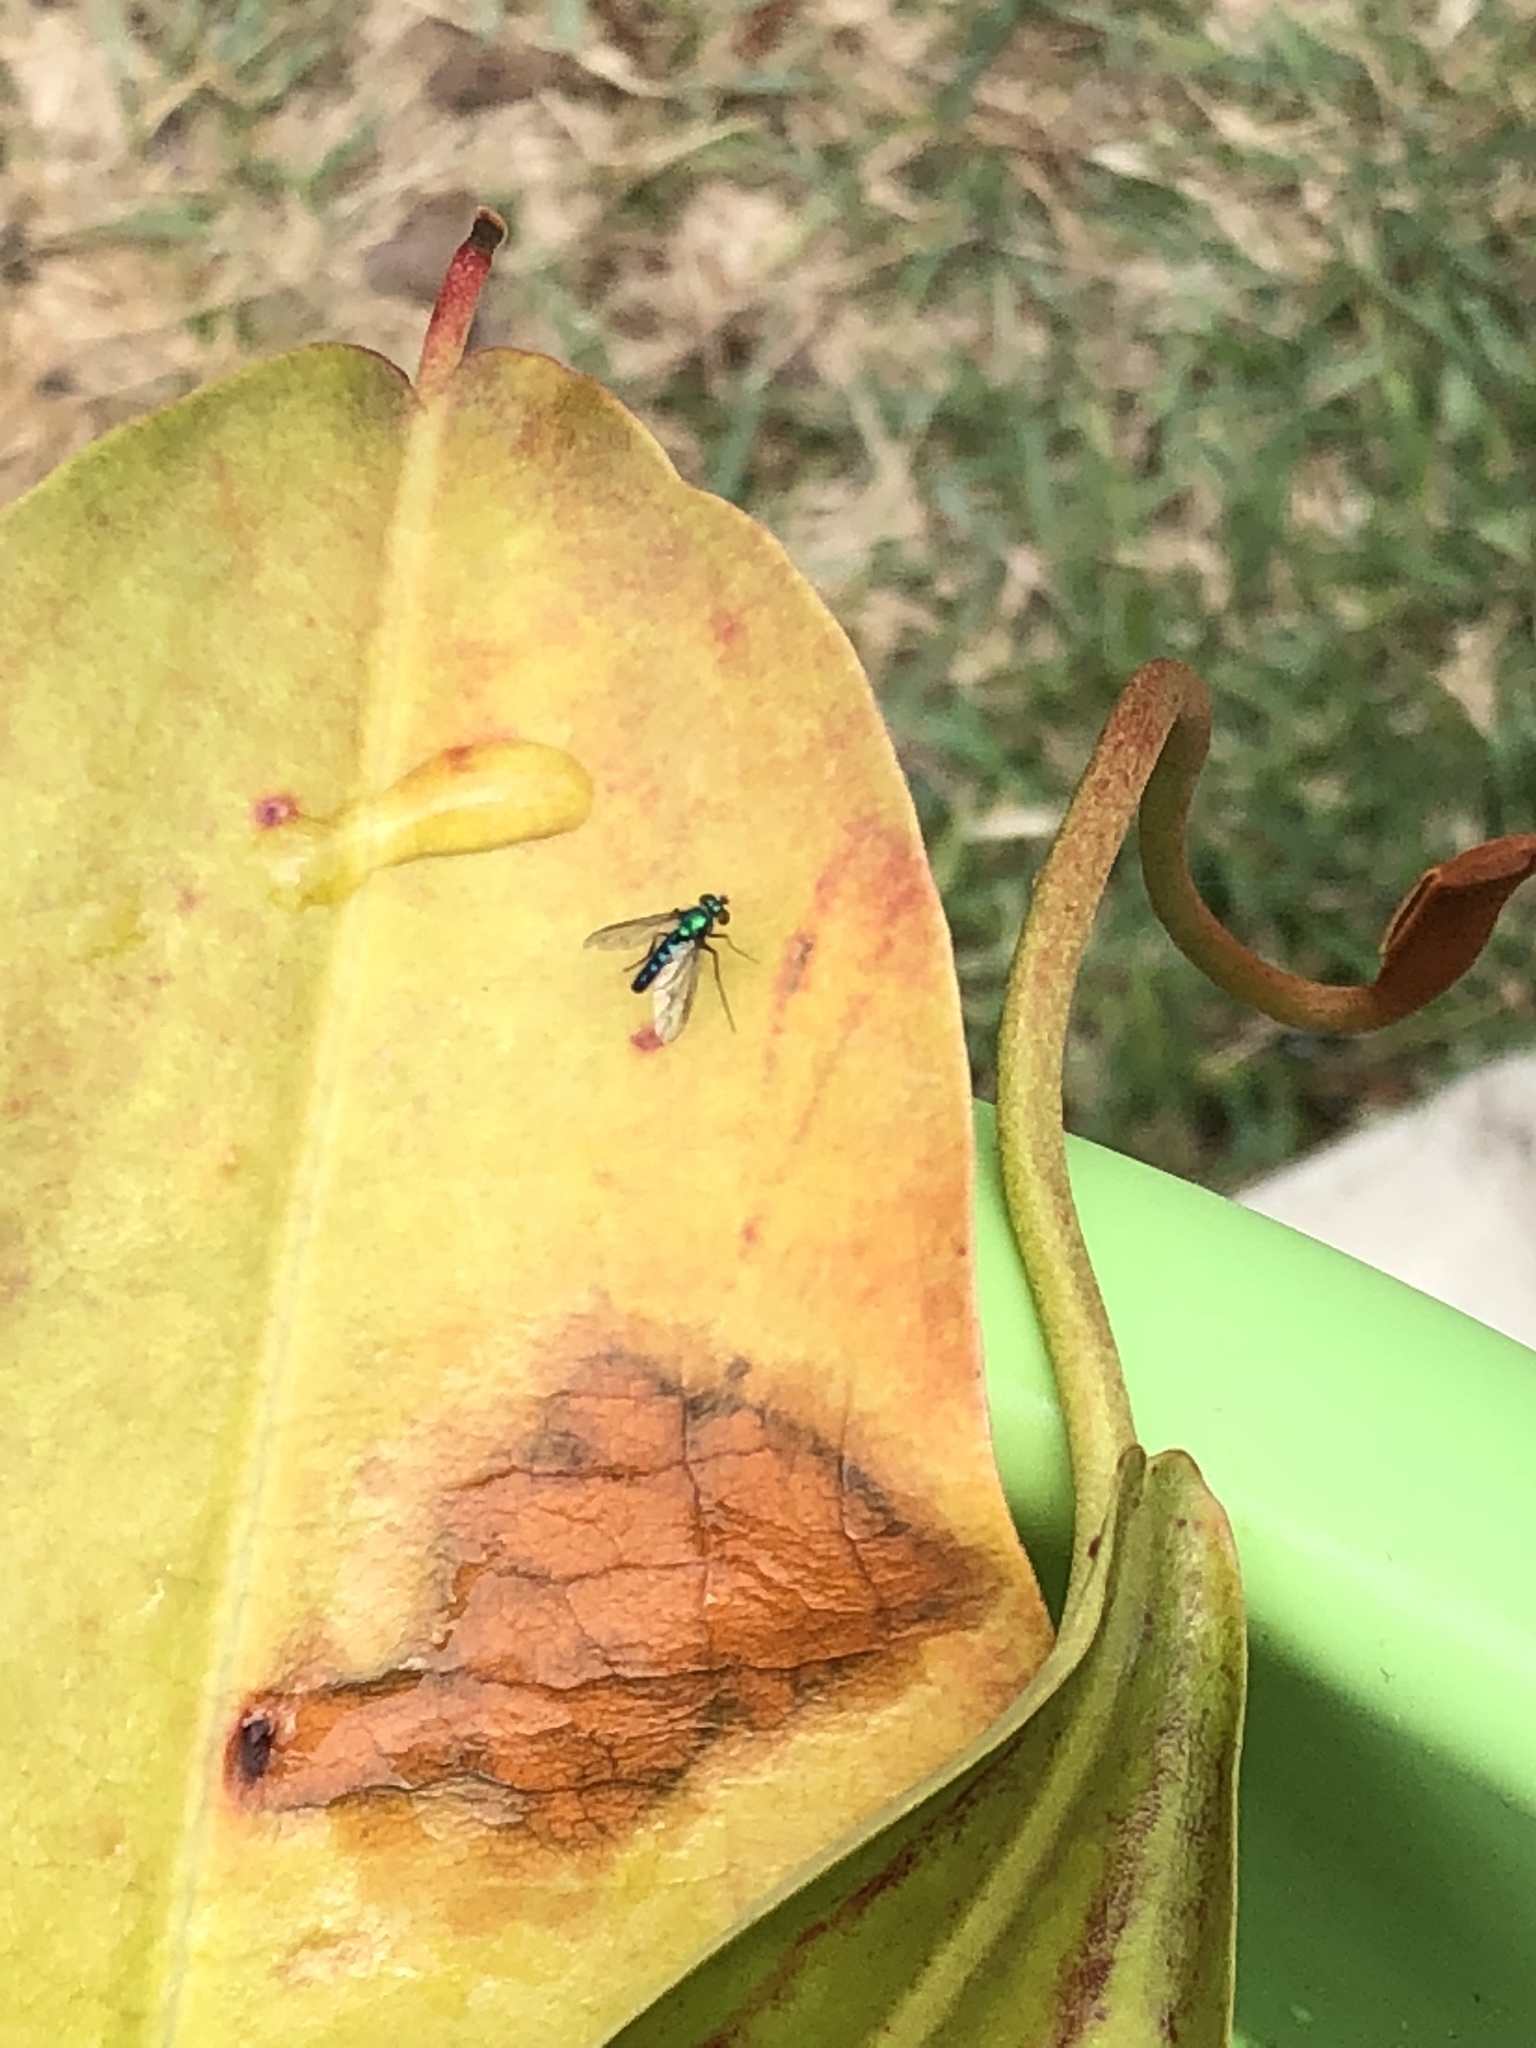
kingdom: Animalia
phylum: Arthropoda
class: Insecta
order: Diptera
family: Dolichopodidae
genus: Condylostylus
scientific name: Condylostylus longicornis
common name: Long-legged fly
